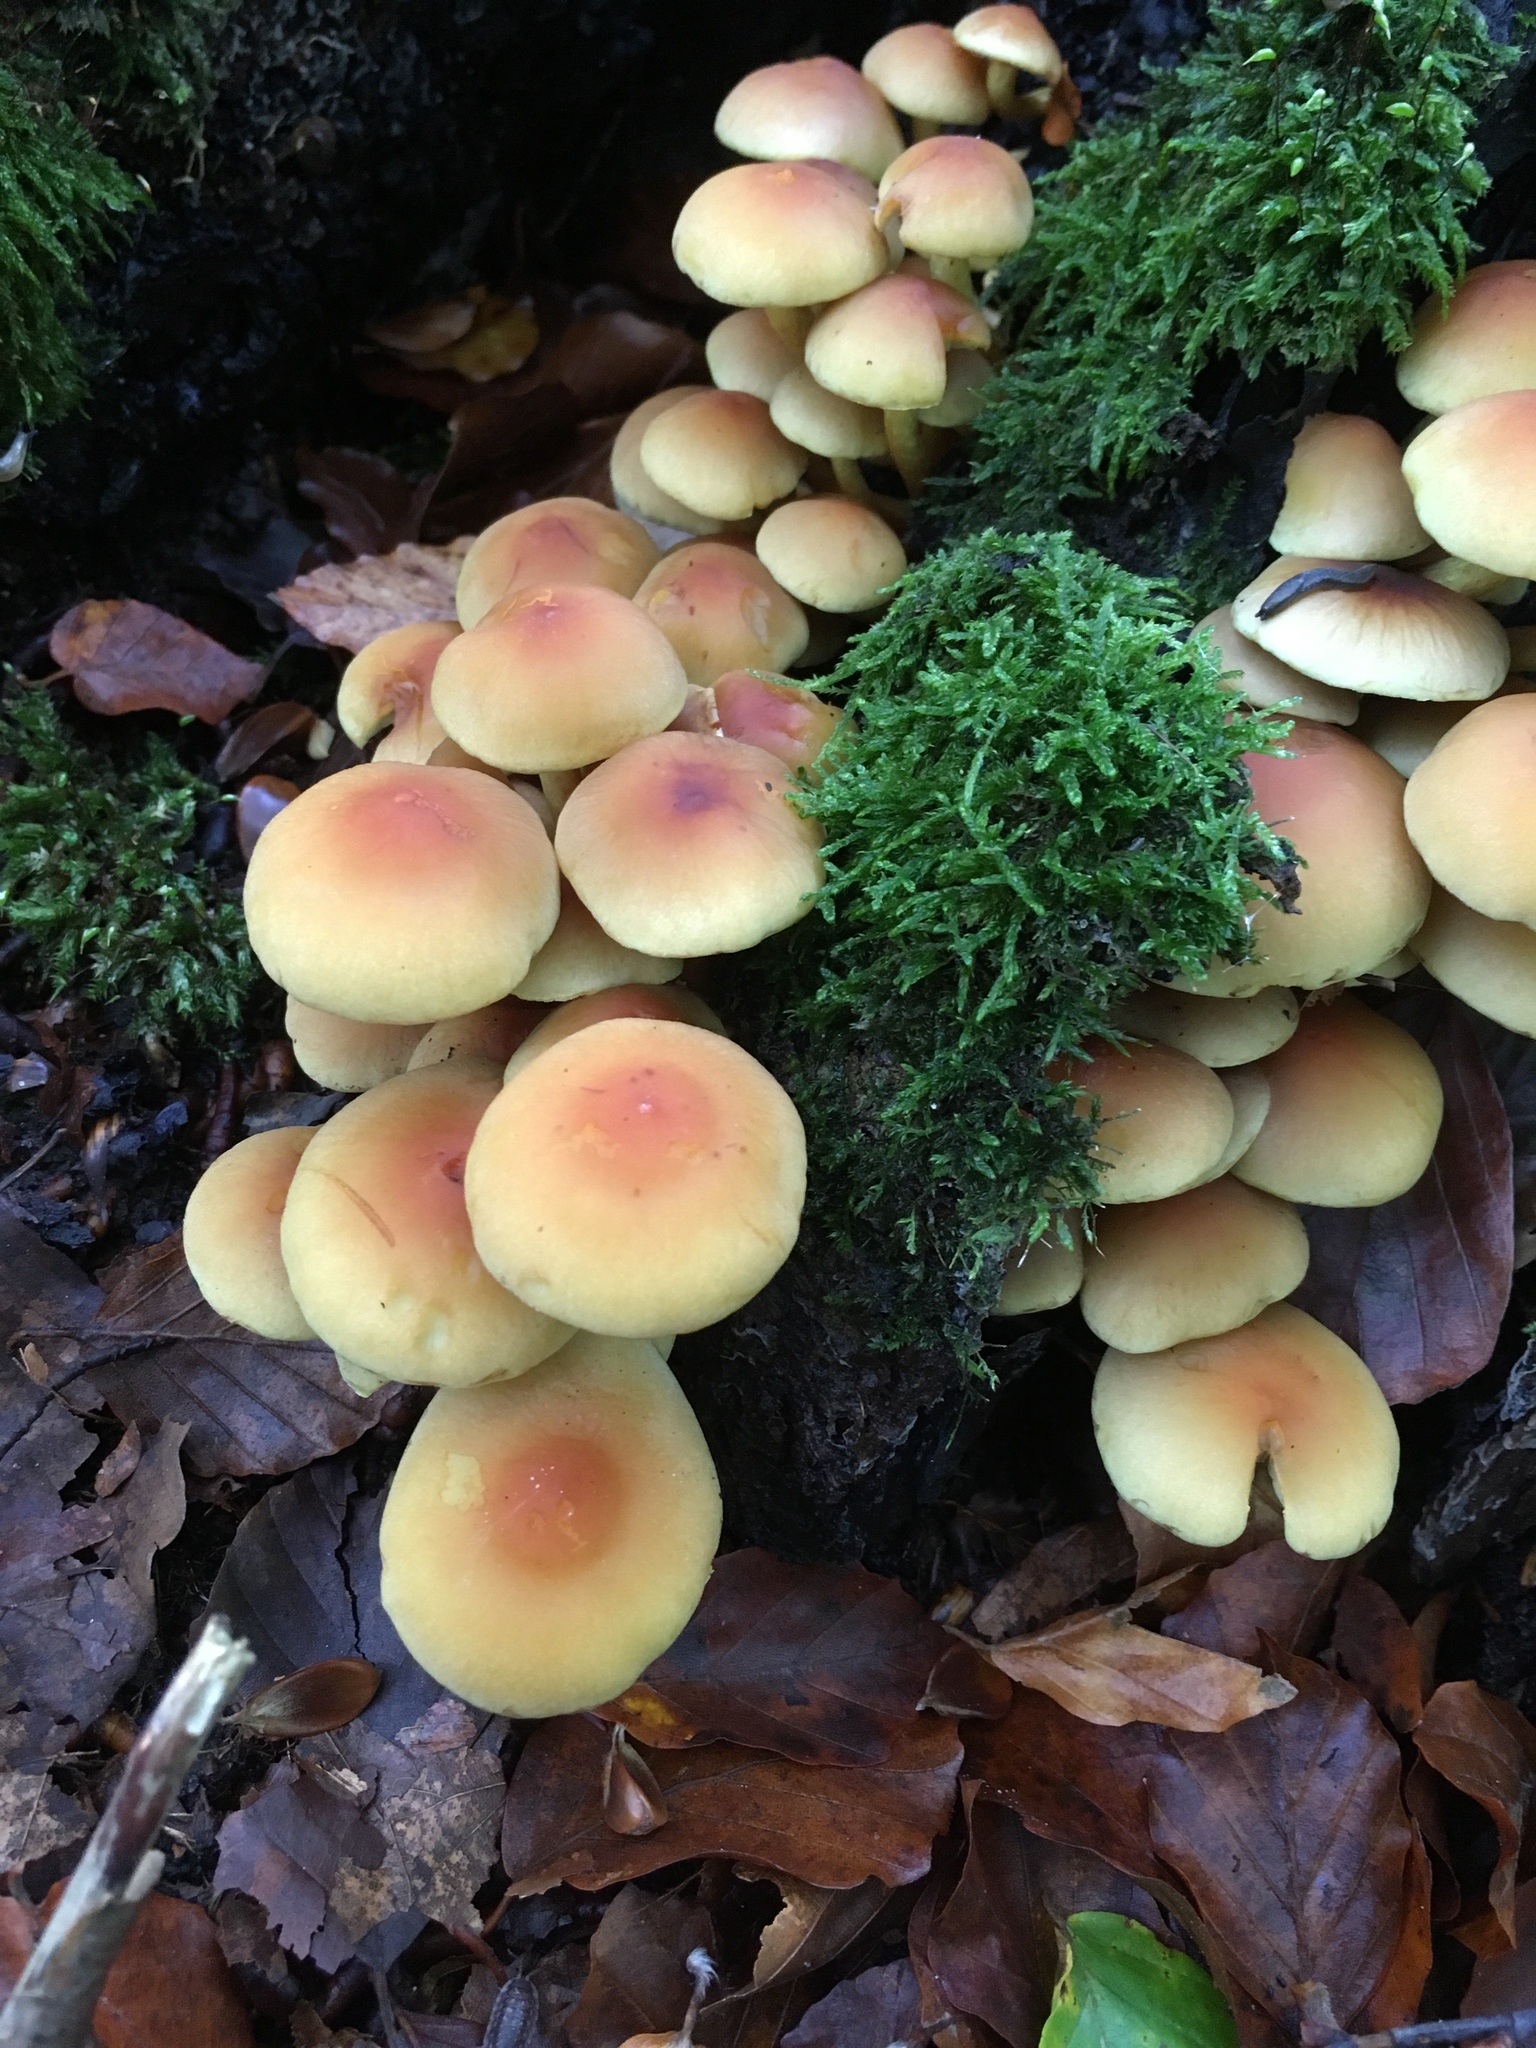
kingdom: Fungi
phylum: Basidiomycota
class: Agaricomycetes
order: Agaricales
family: Strophariaceae
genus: Hypholoma
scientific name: Hypholoma fasciculare
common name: Sulphur tuft
